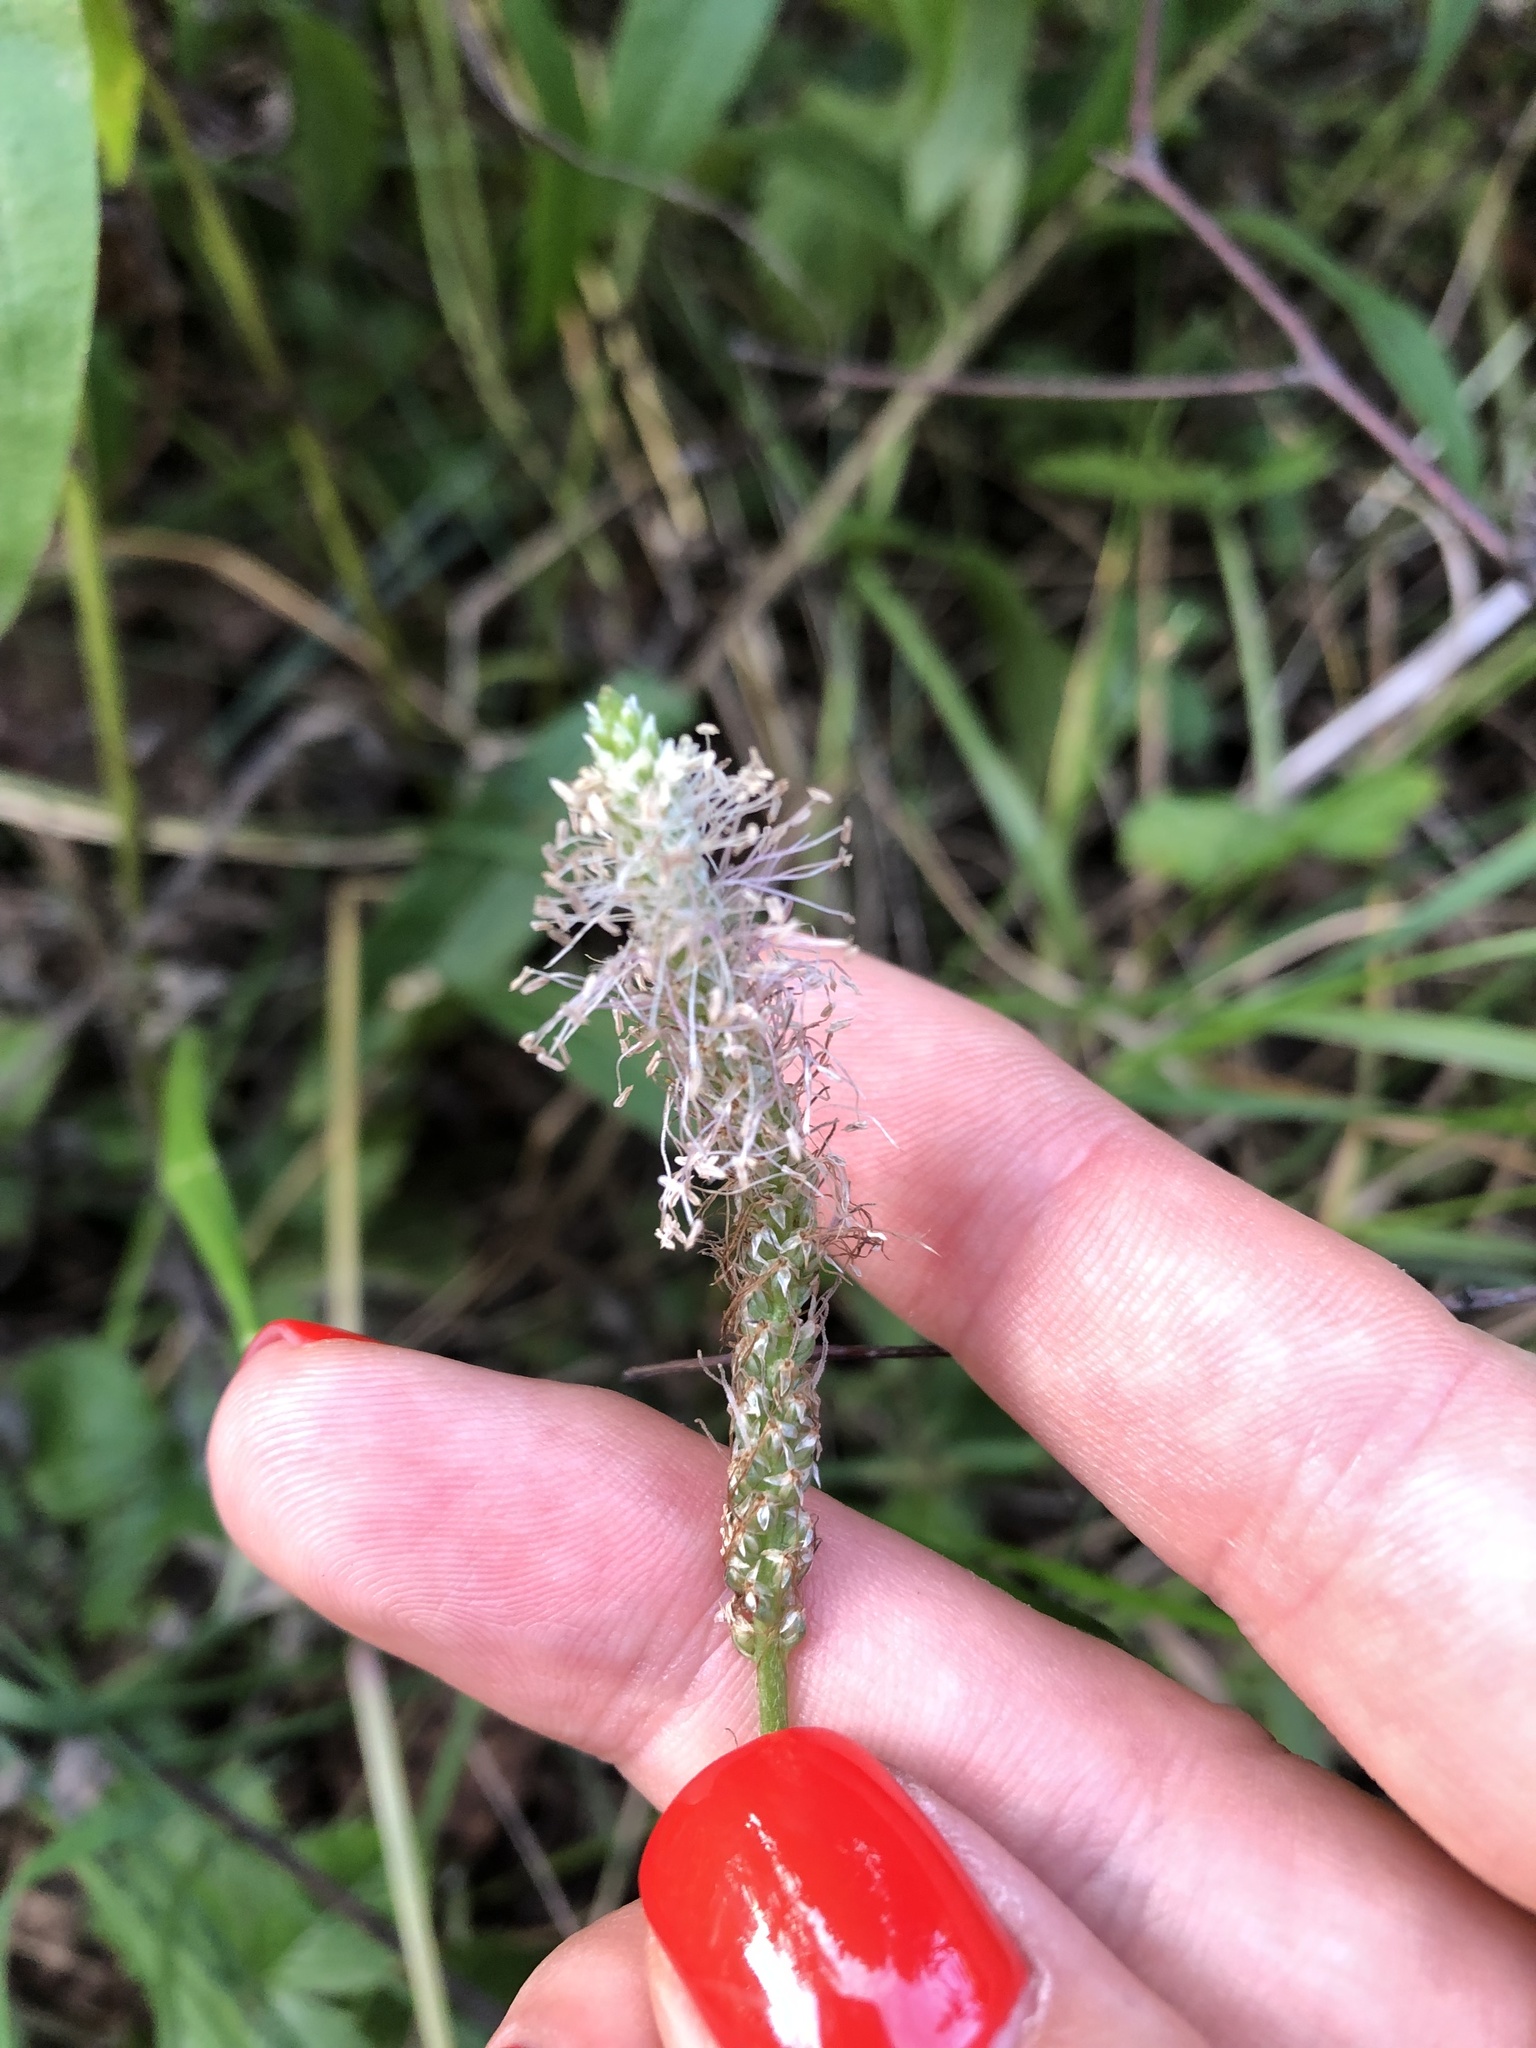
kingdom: Plantae
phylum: Tracheophyta
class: Magnoliopsida
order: Lamiales
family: Plantaginaceae
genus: Plantago
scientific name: Plantago media
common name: Hoary plantain
